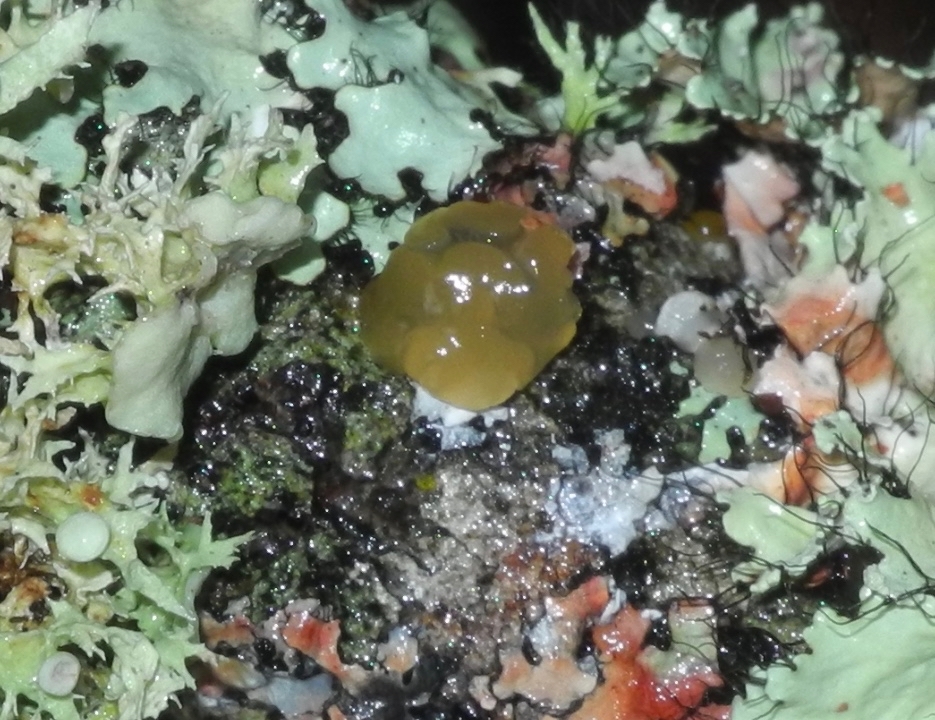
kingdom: Fungi
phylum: Basidiomycota
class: Agaricomycetes
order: Auriculariales
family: Hyaloriaceae
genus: Myxarium
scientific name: Myxarium nucleatum
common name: Crystal brain fungus
